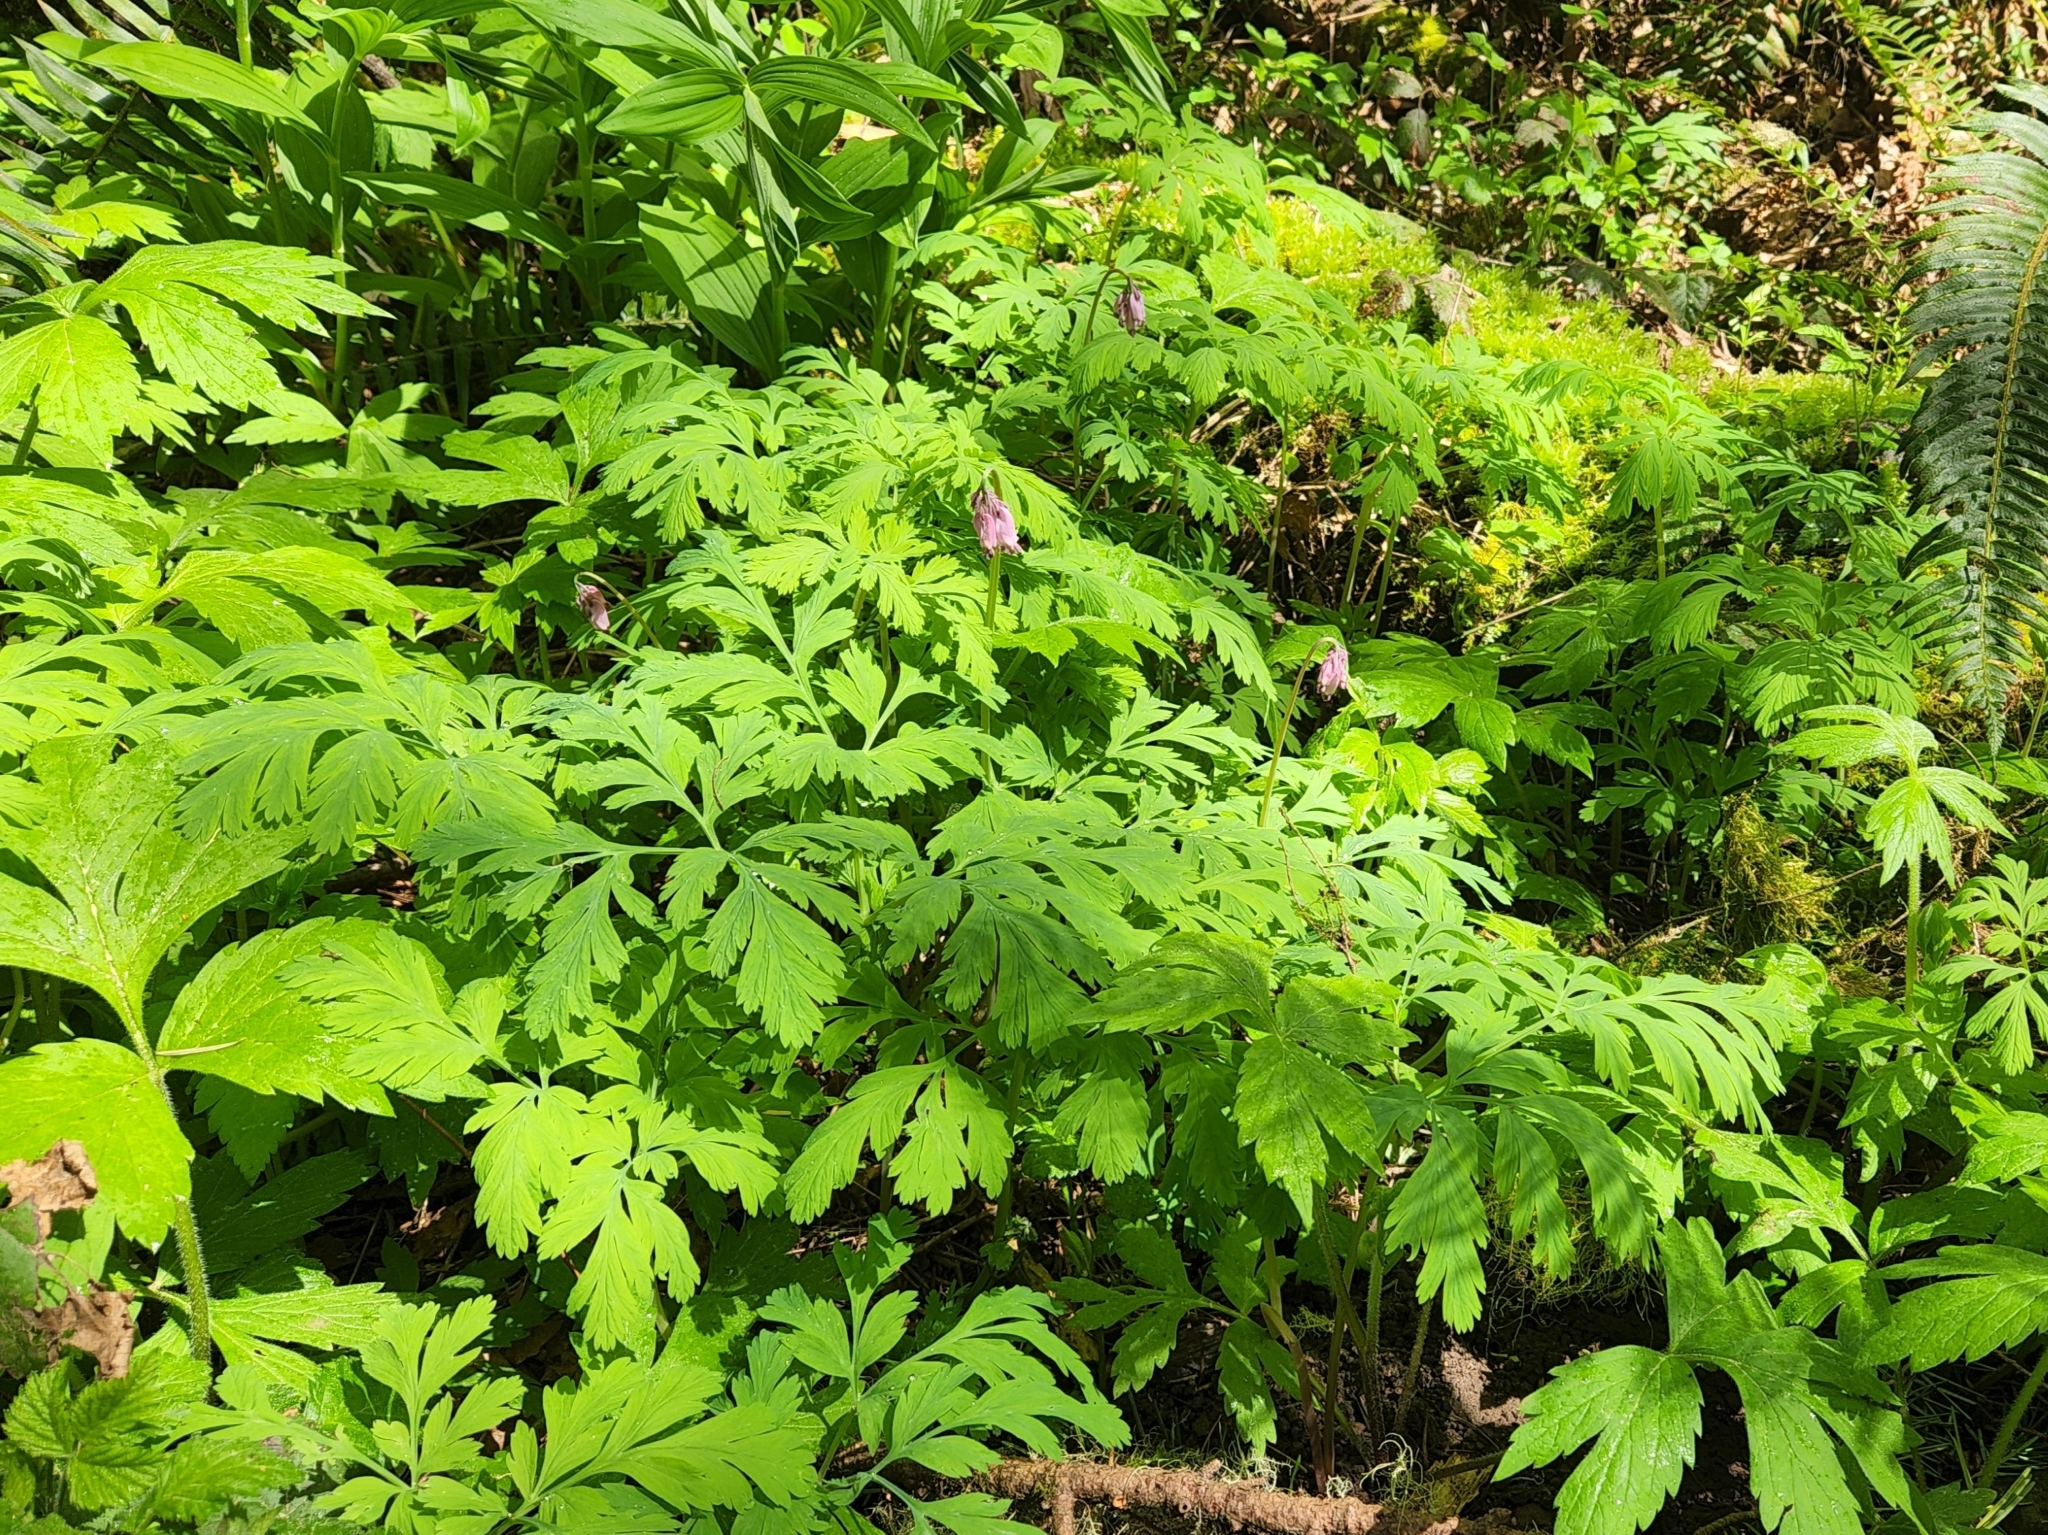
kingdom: Plantae
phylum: Tracheophyta
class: Magnoliopsida
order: Ranunculales
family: Papaveraceae
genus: Dicentra
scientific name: Dicentra formosa
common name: Bleeding-heart
